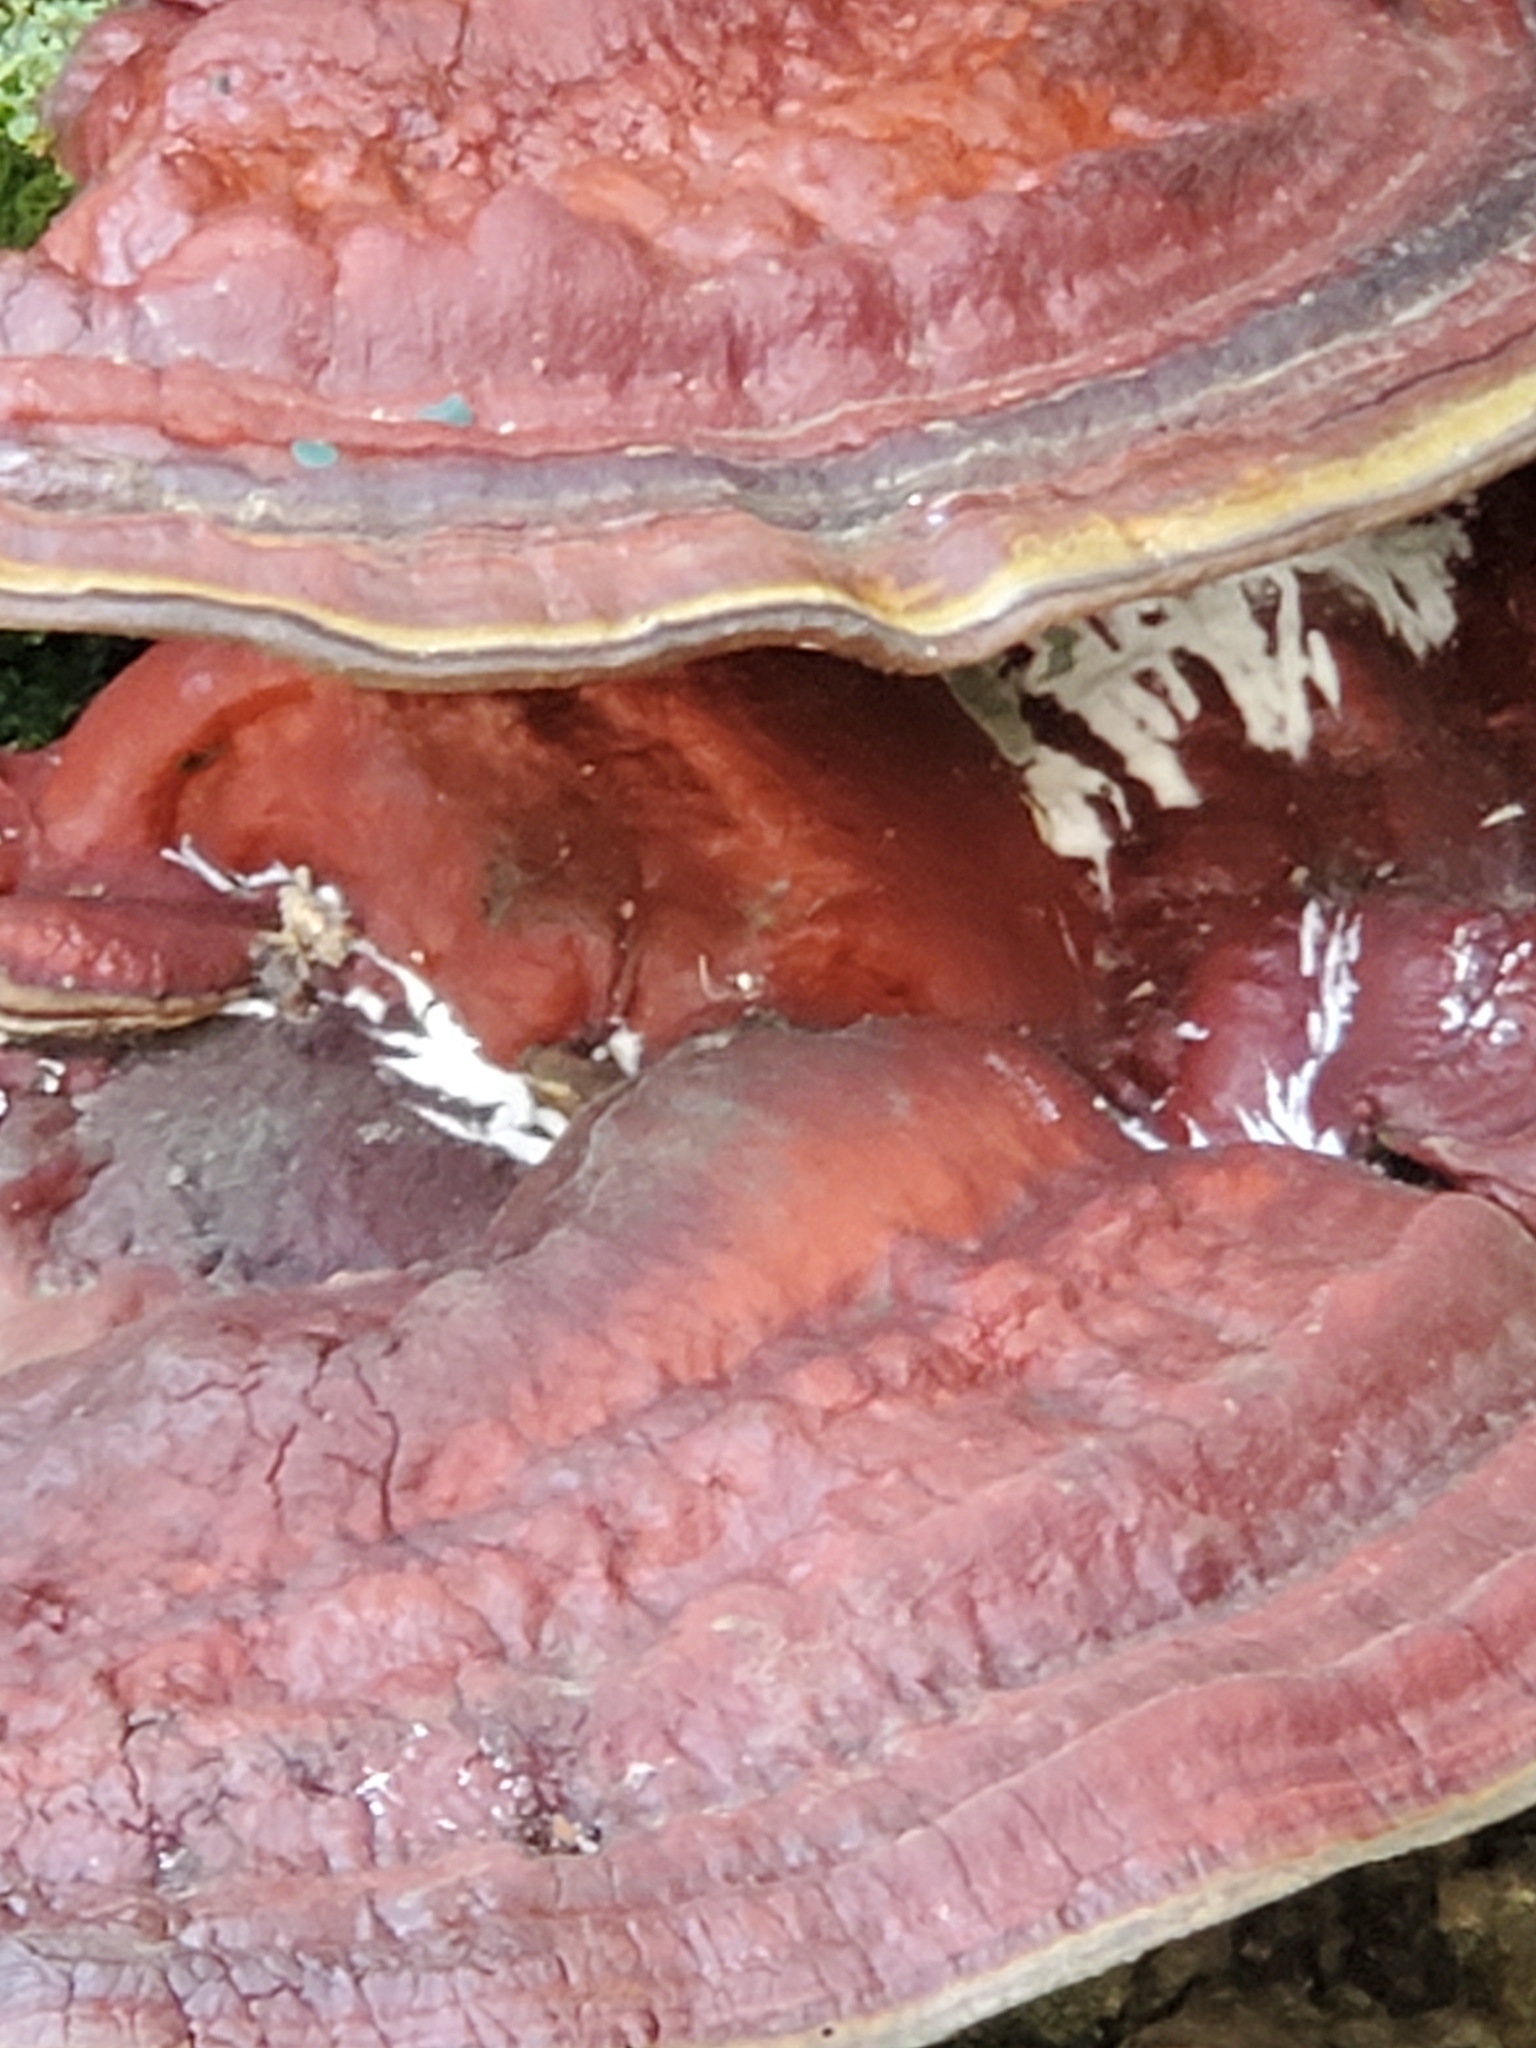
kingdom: Fungi
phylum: Basidiomycota
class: Agaricomycetes
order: Polyporales
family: Polyporaceae
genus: Ganoderma
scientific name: Ganoderma resinaceum
